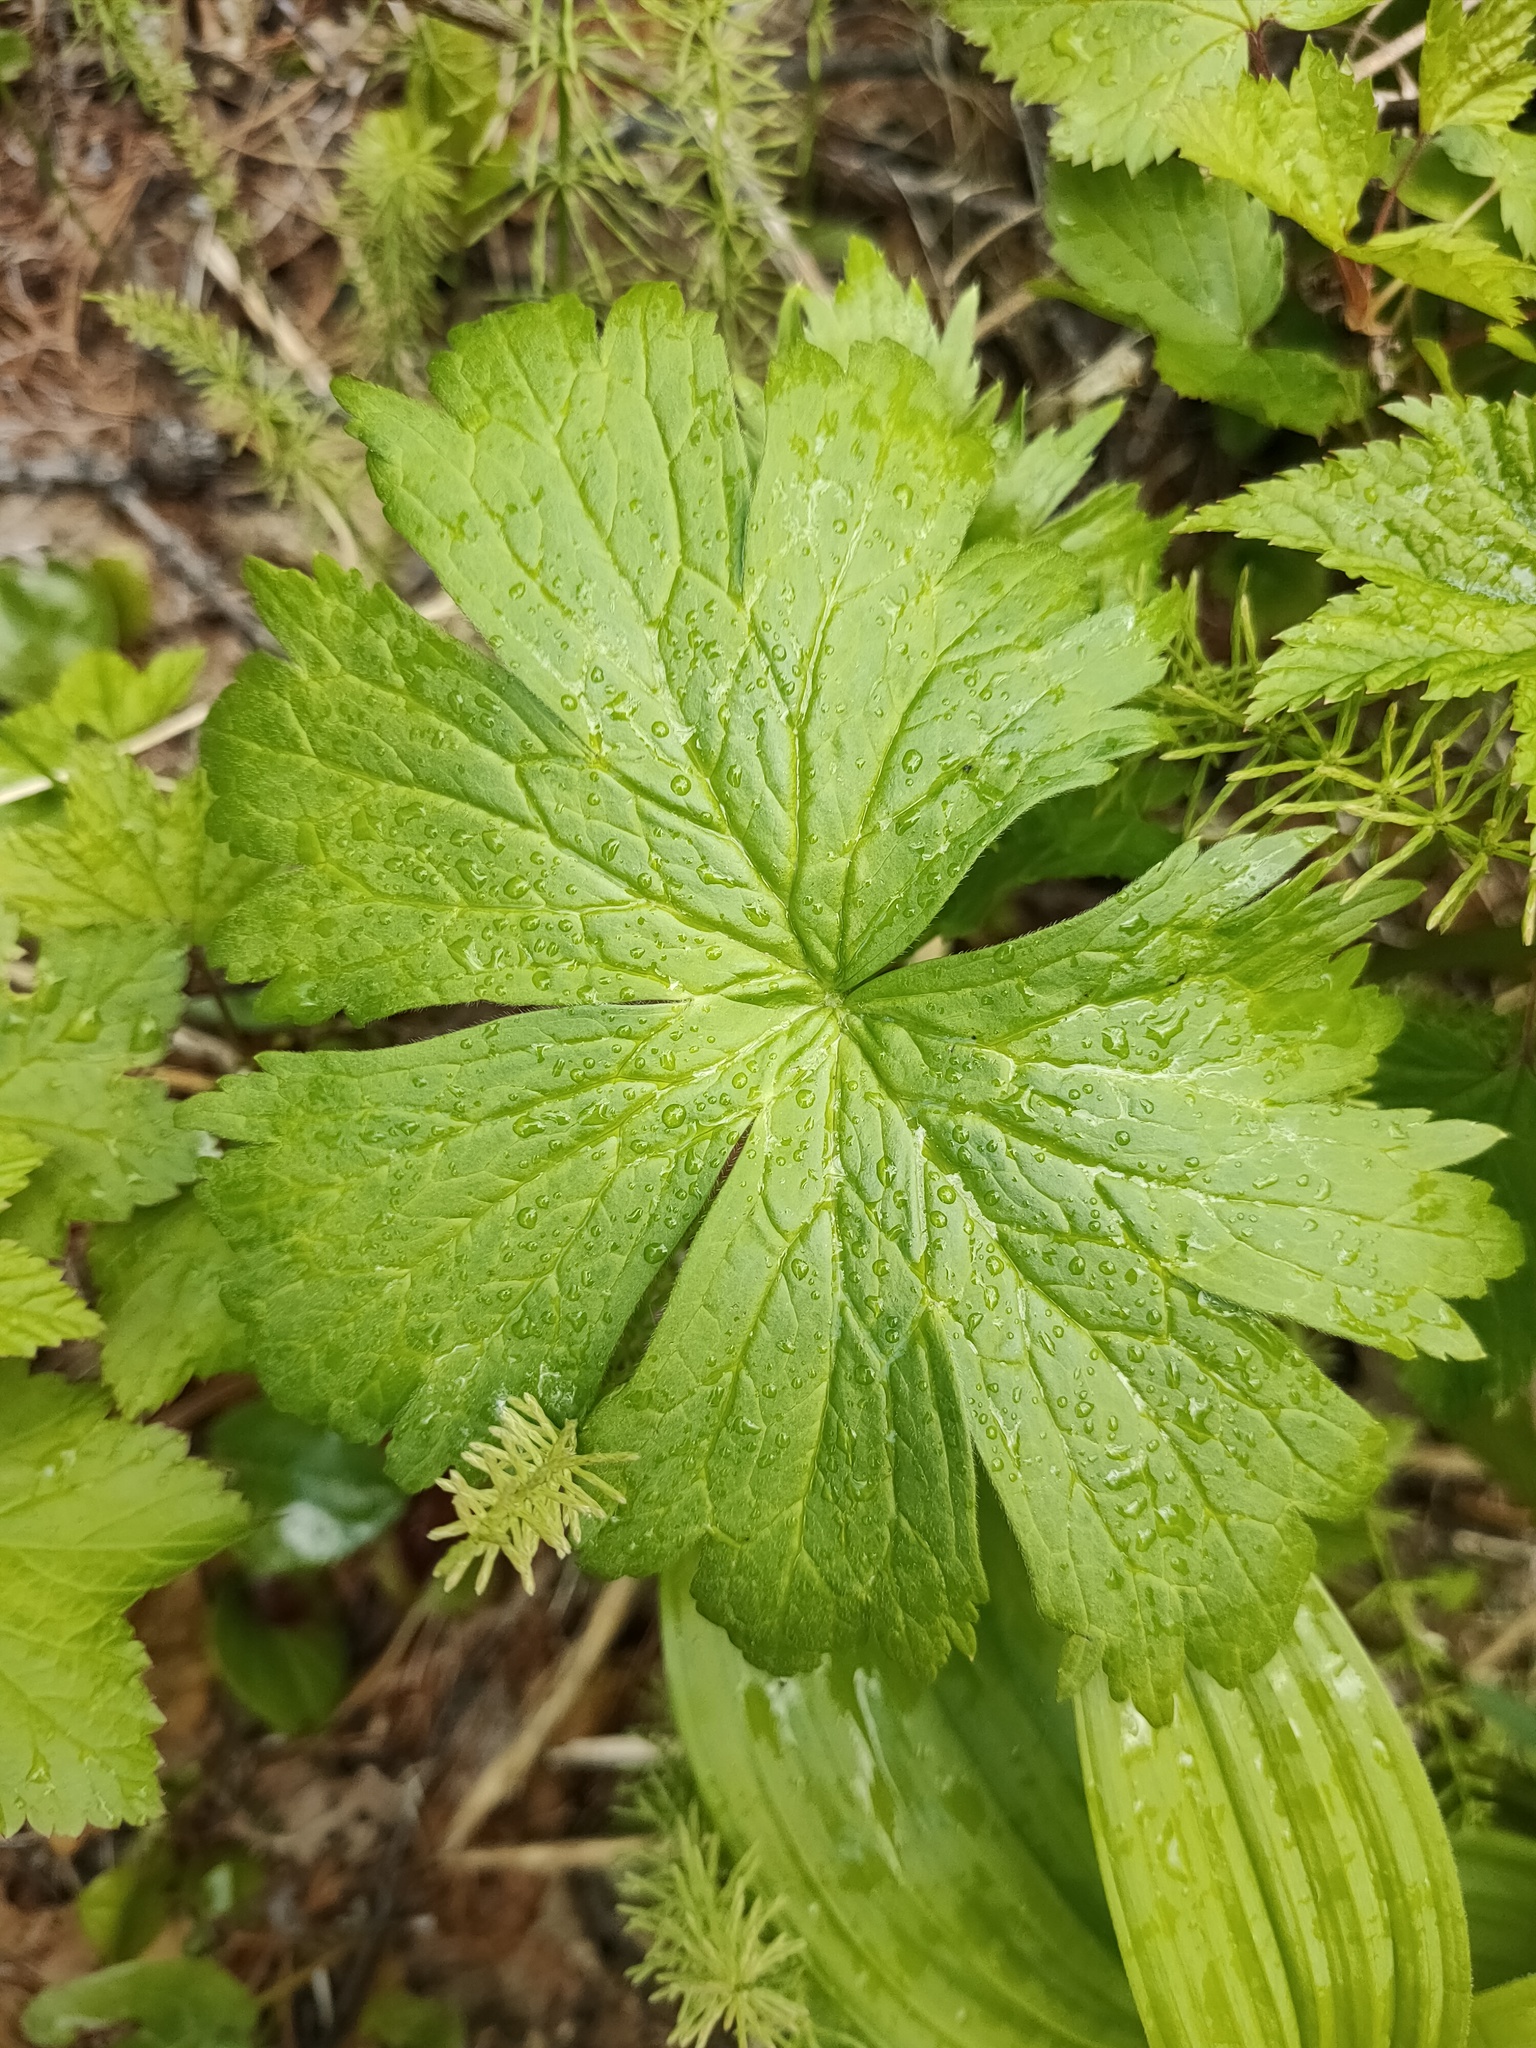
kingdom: Plantae
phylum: Tracheophyta
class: Magnoliopsida
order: Ranunculales
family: Ranunculaceae
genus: Aconitum
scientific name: Aconitum septentrionale
